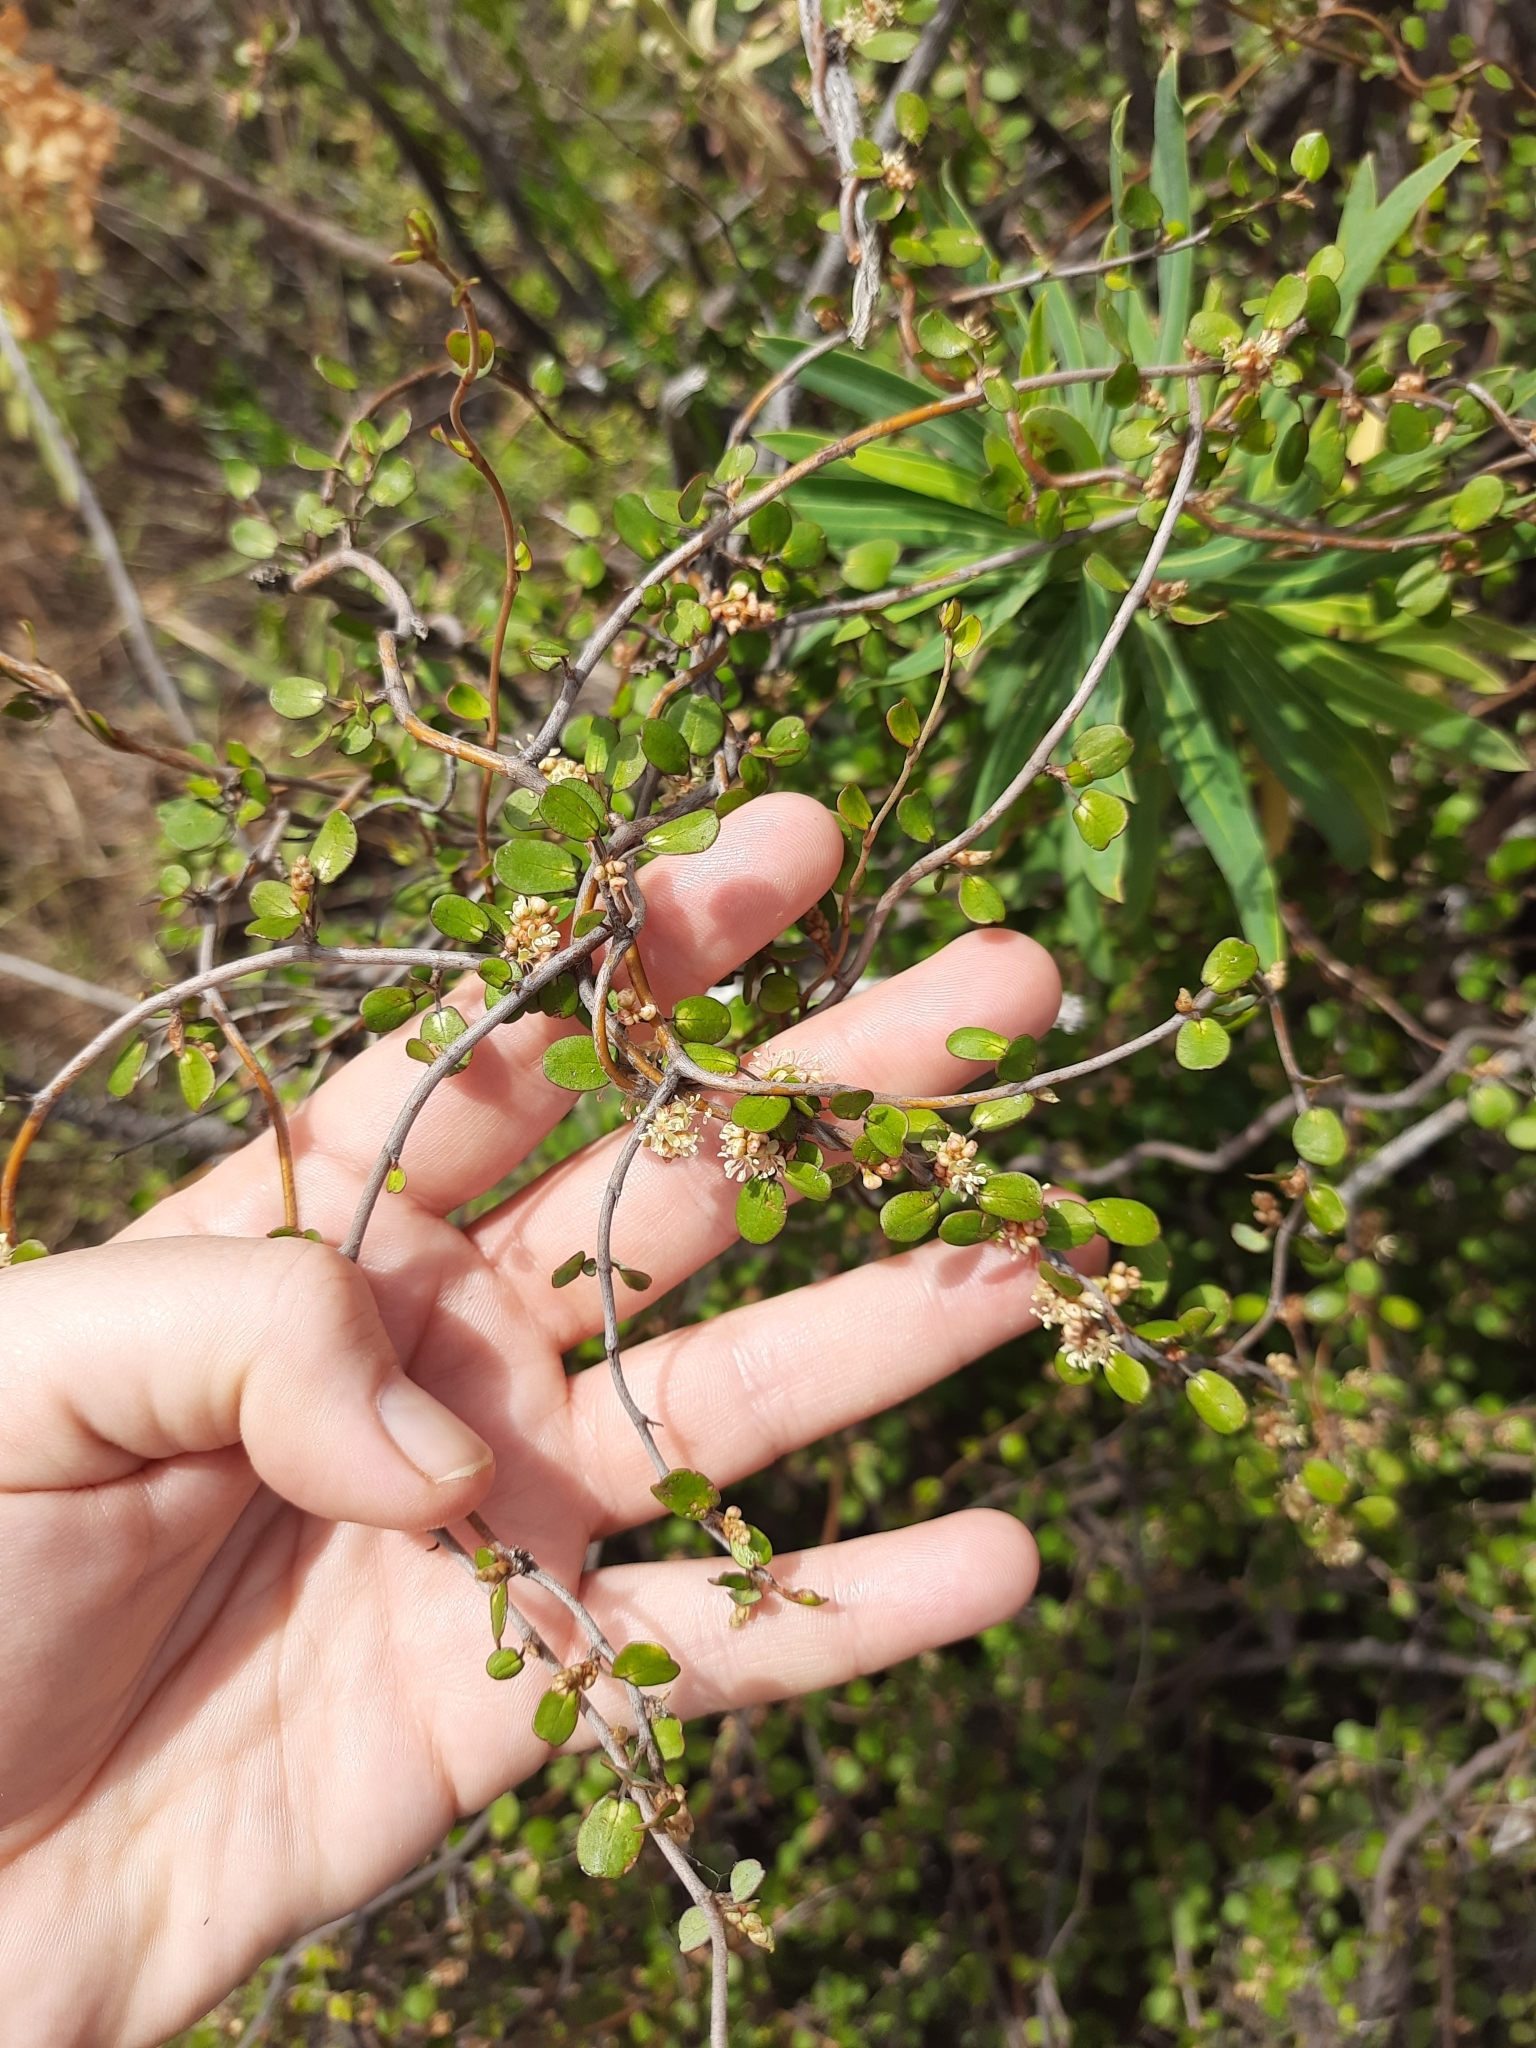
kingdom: Plantae
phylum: Tracheophyta
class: Magnoliopsida
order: Caryophyllales
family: Polygonaceae
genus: Muehlenbeckia
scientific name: Muehlenbeckia complexa
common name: Wireplant
